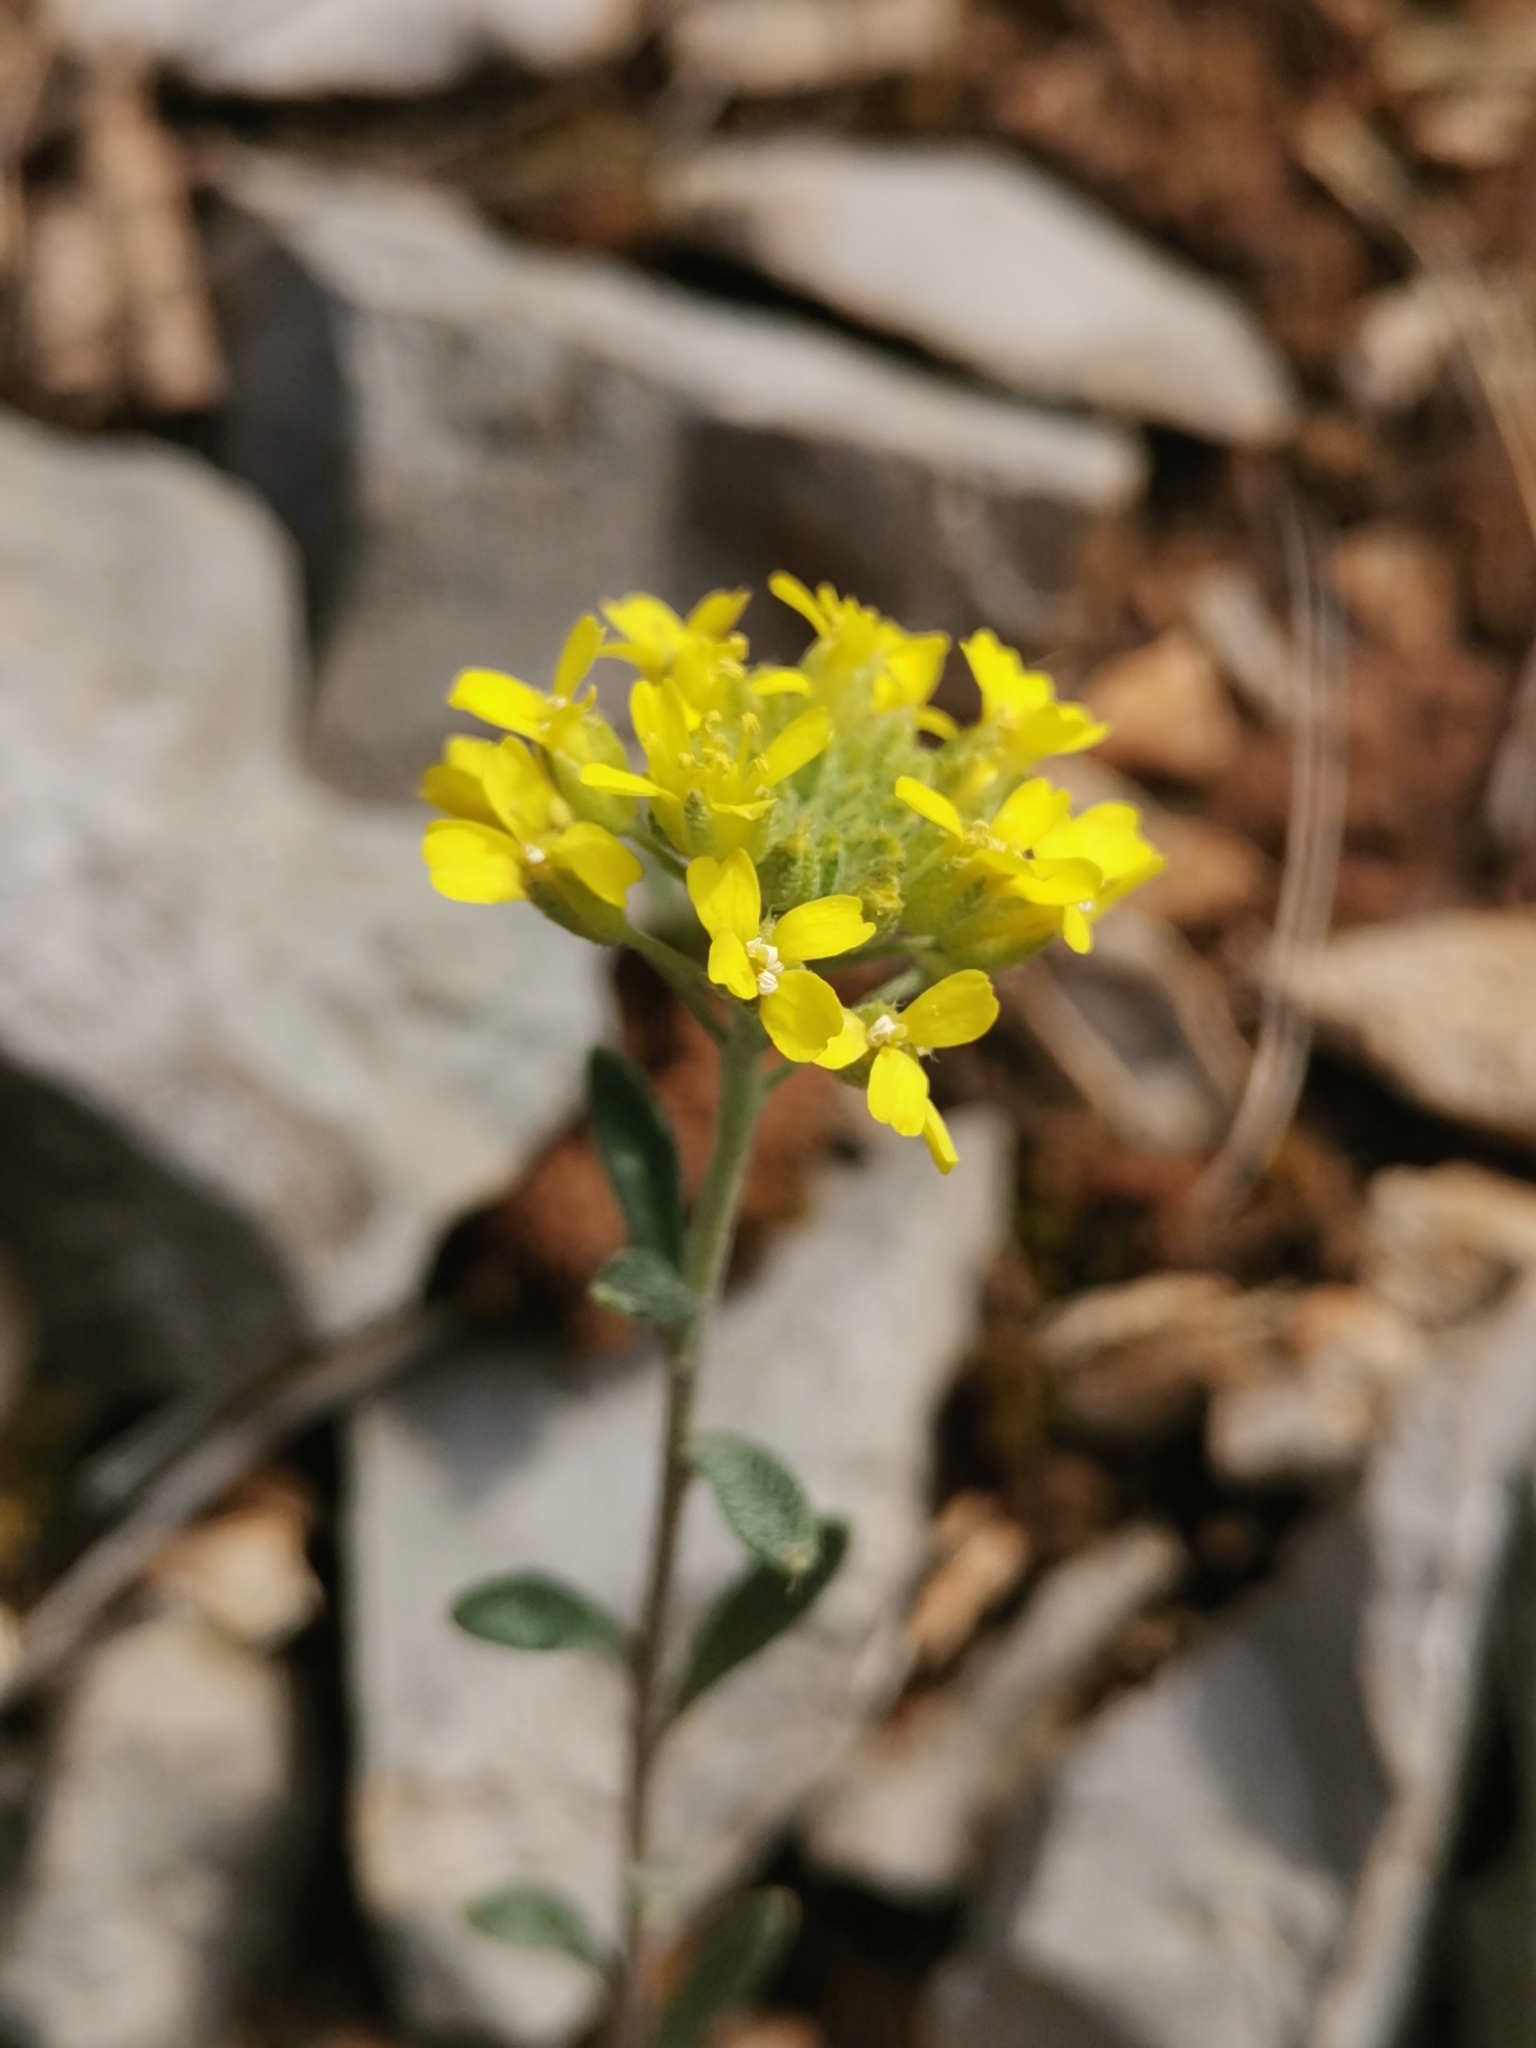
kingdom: Plantae
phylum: Tracheophyta
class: Magnoliopsida
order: Brassicales
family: Brassicaceae
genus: Alyssum
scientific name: Alyssum austrodalmaticum
